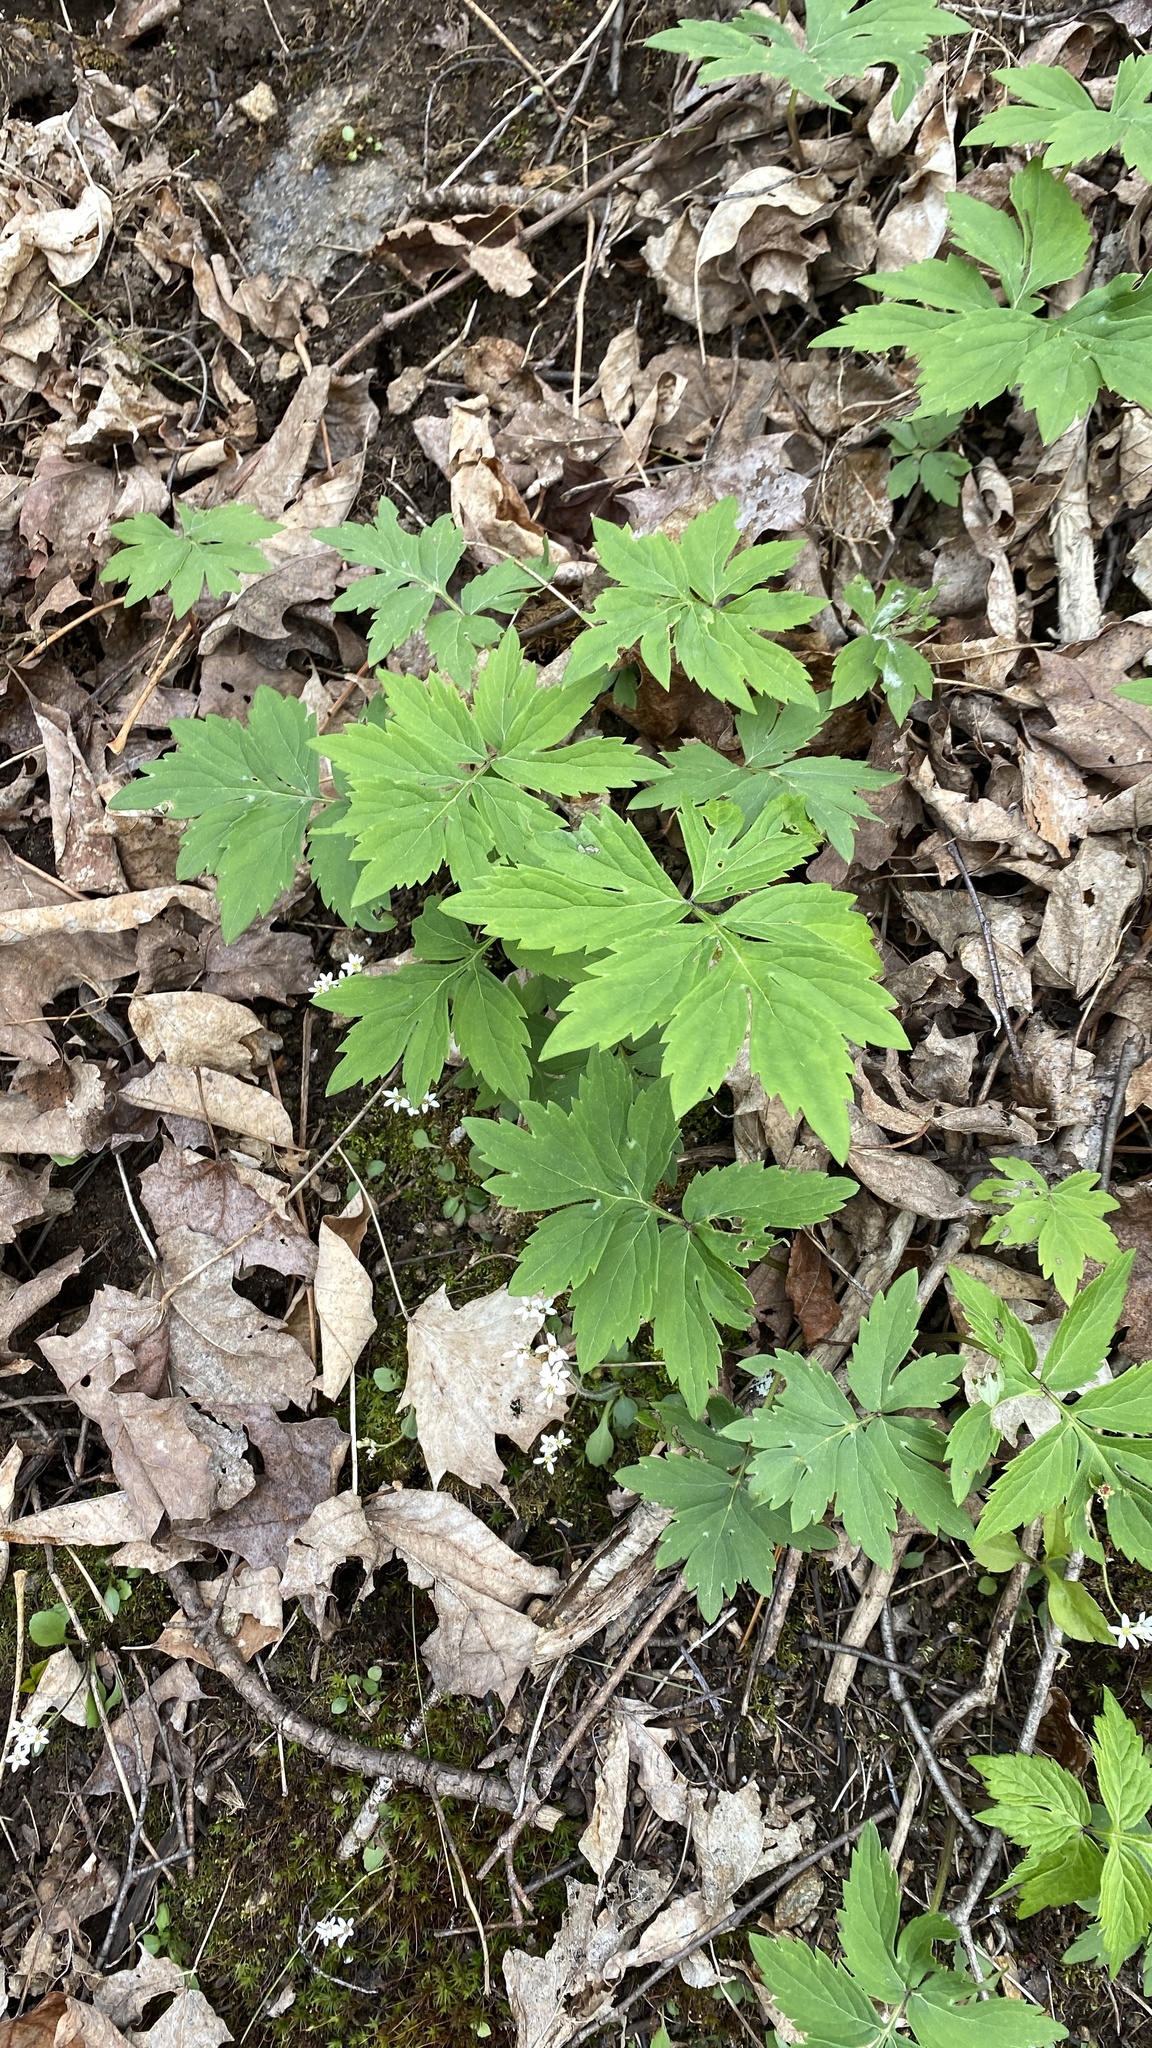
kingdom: Plantae
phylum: Tracheophyta
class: Magnoliopsida
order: Boraginales
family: Hydrophyllaceae
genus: Hydrophyllum
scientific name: Hydrophyllum virginianum
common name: Virginia waterleaf
